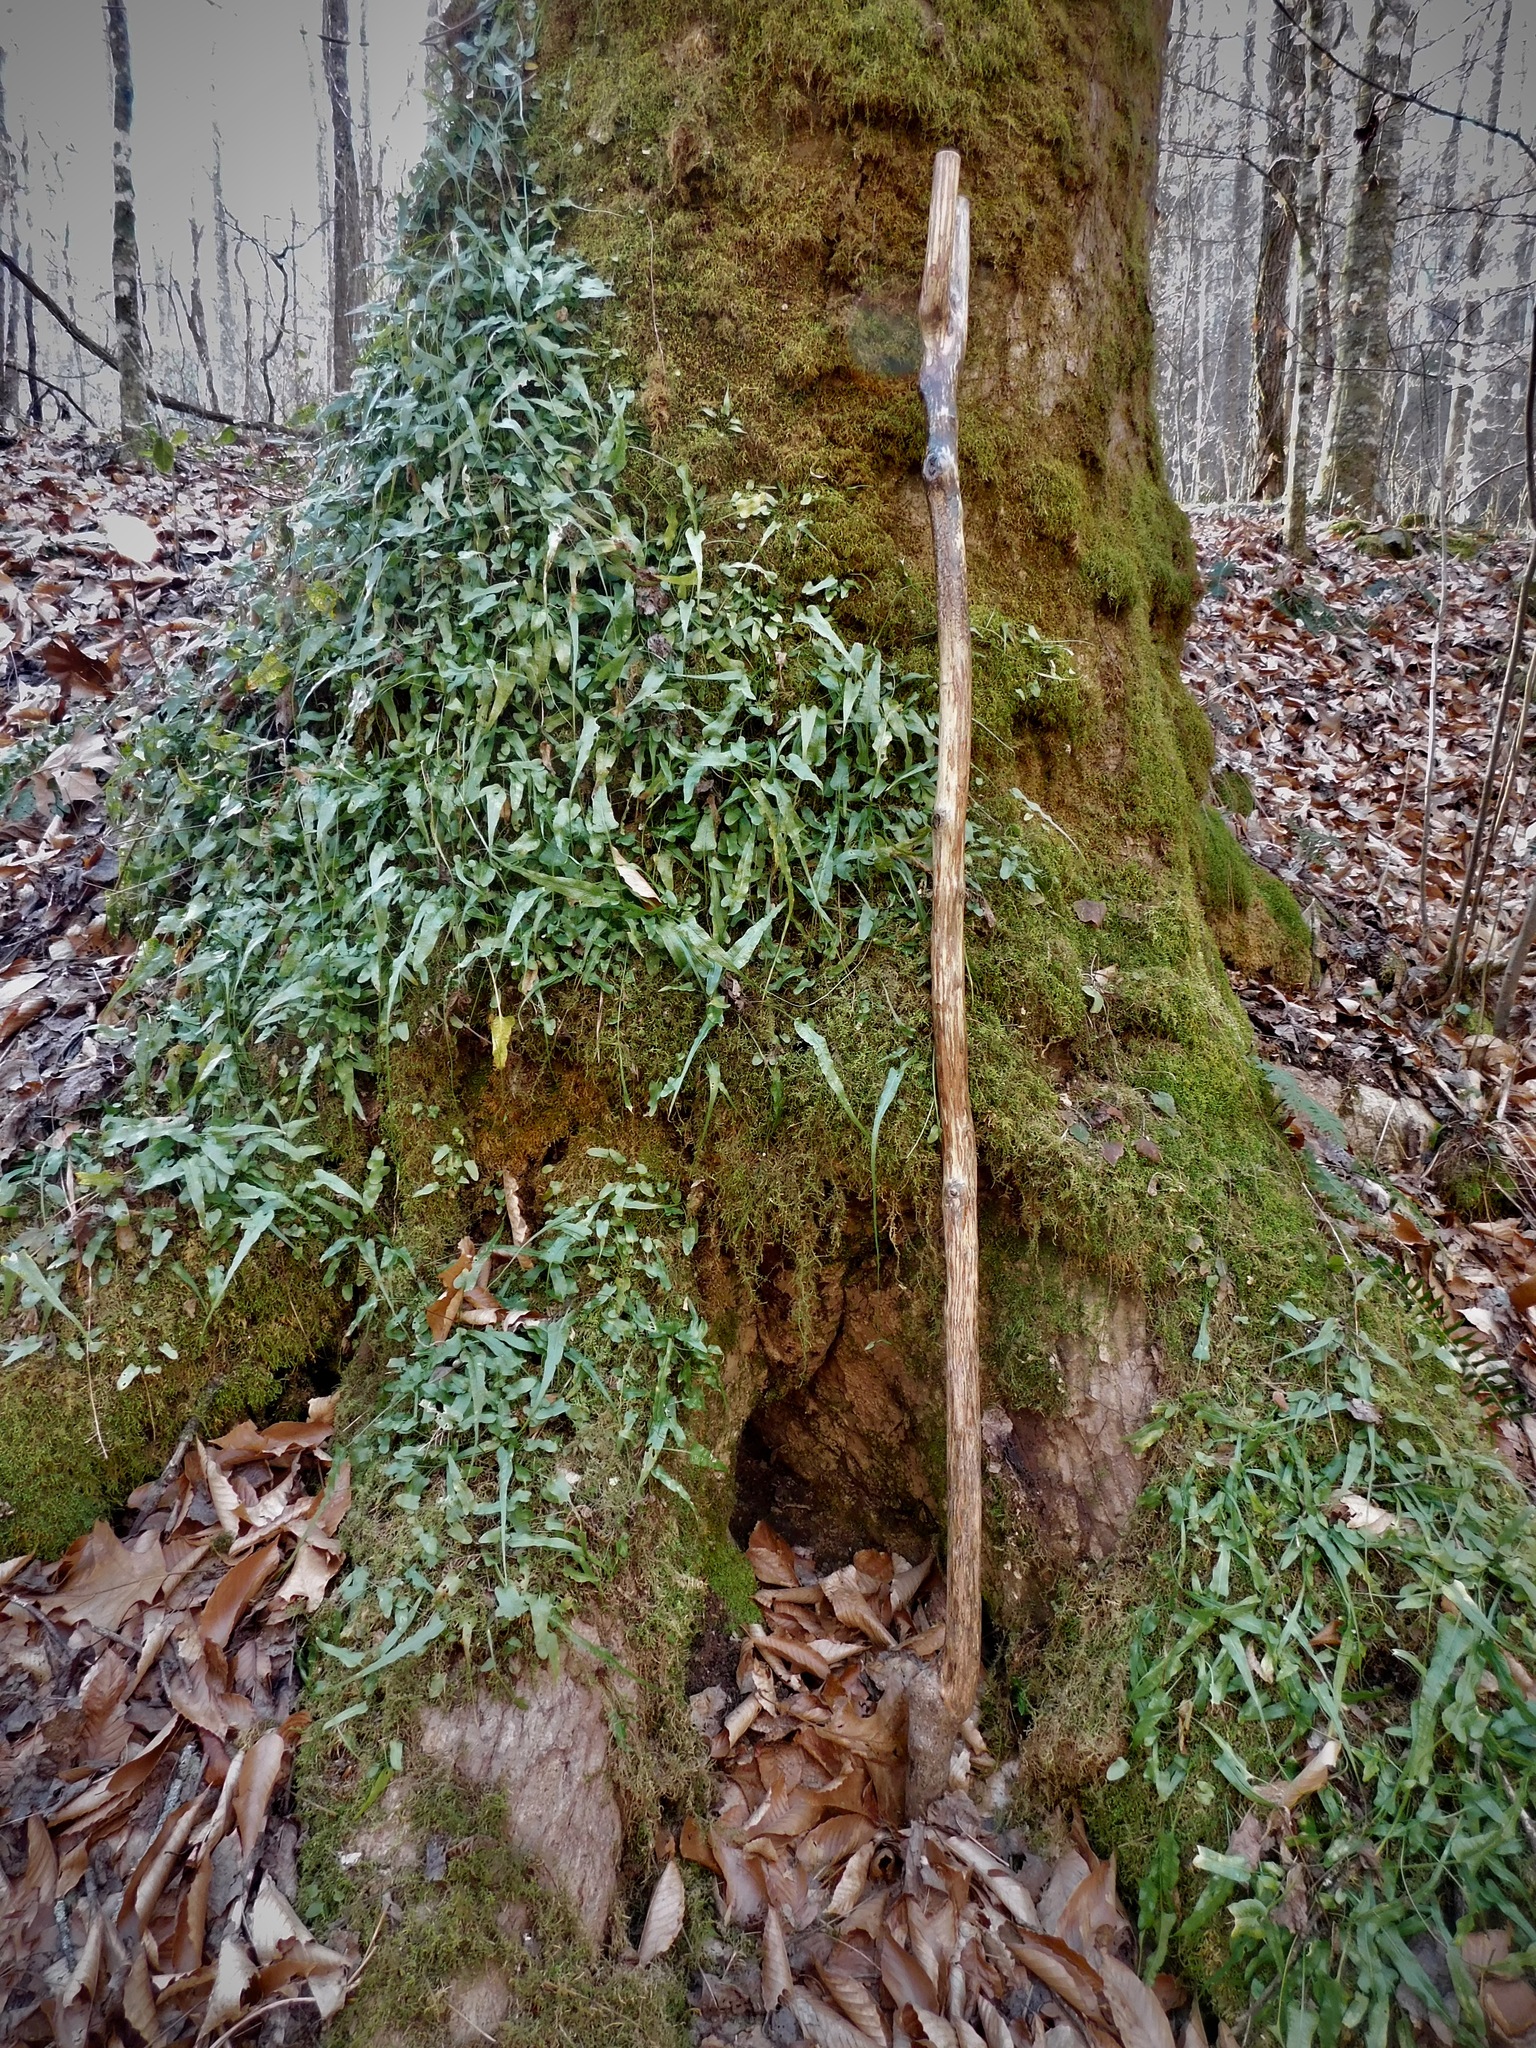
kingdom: Plantae
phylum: Tracheophyta
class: Polypodiopsida
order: Polypodiales
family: Aspleniaceae
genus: Asplenium
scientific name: Asplenium rhizophyllum
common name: Walking fern
